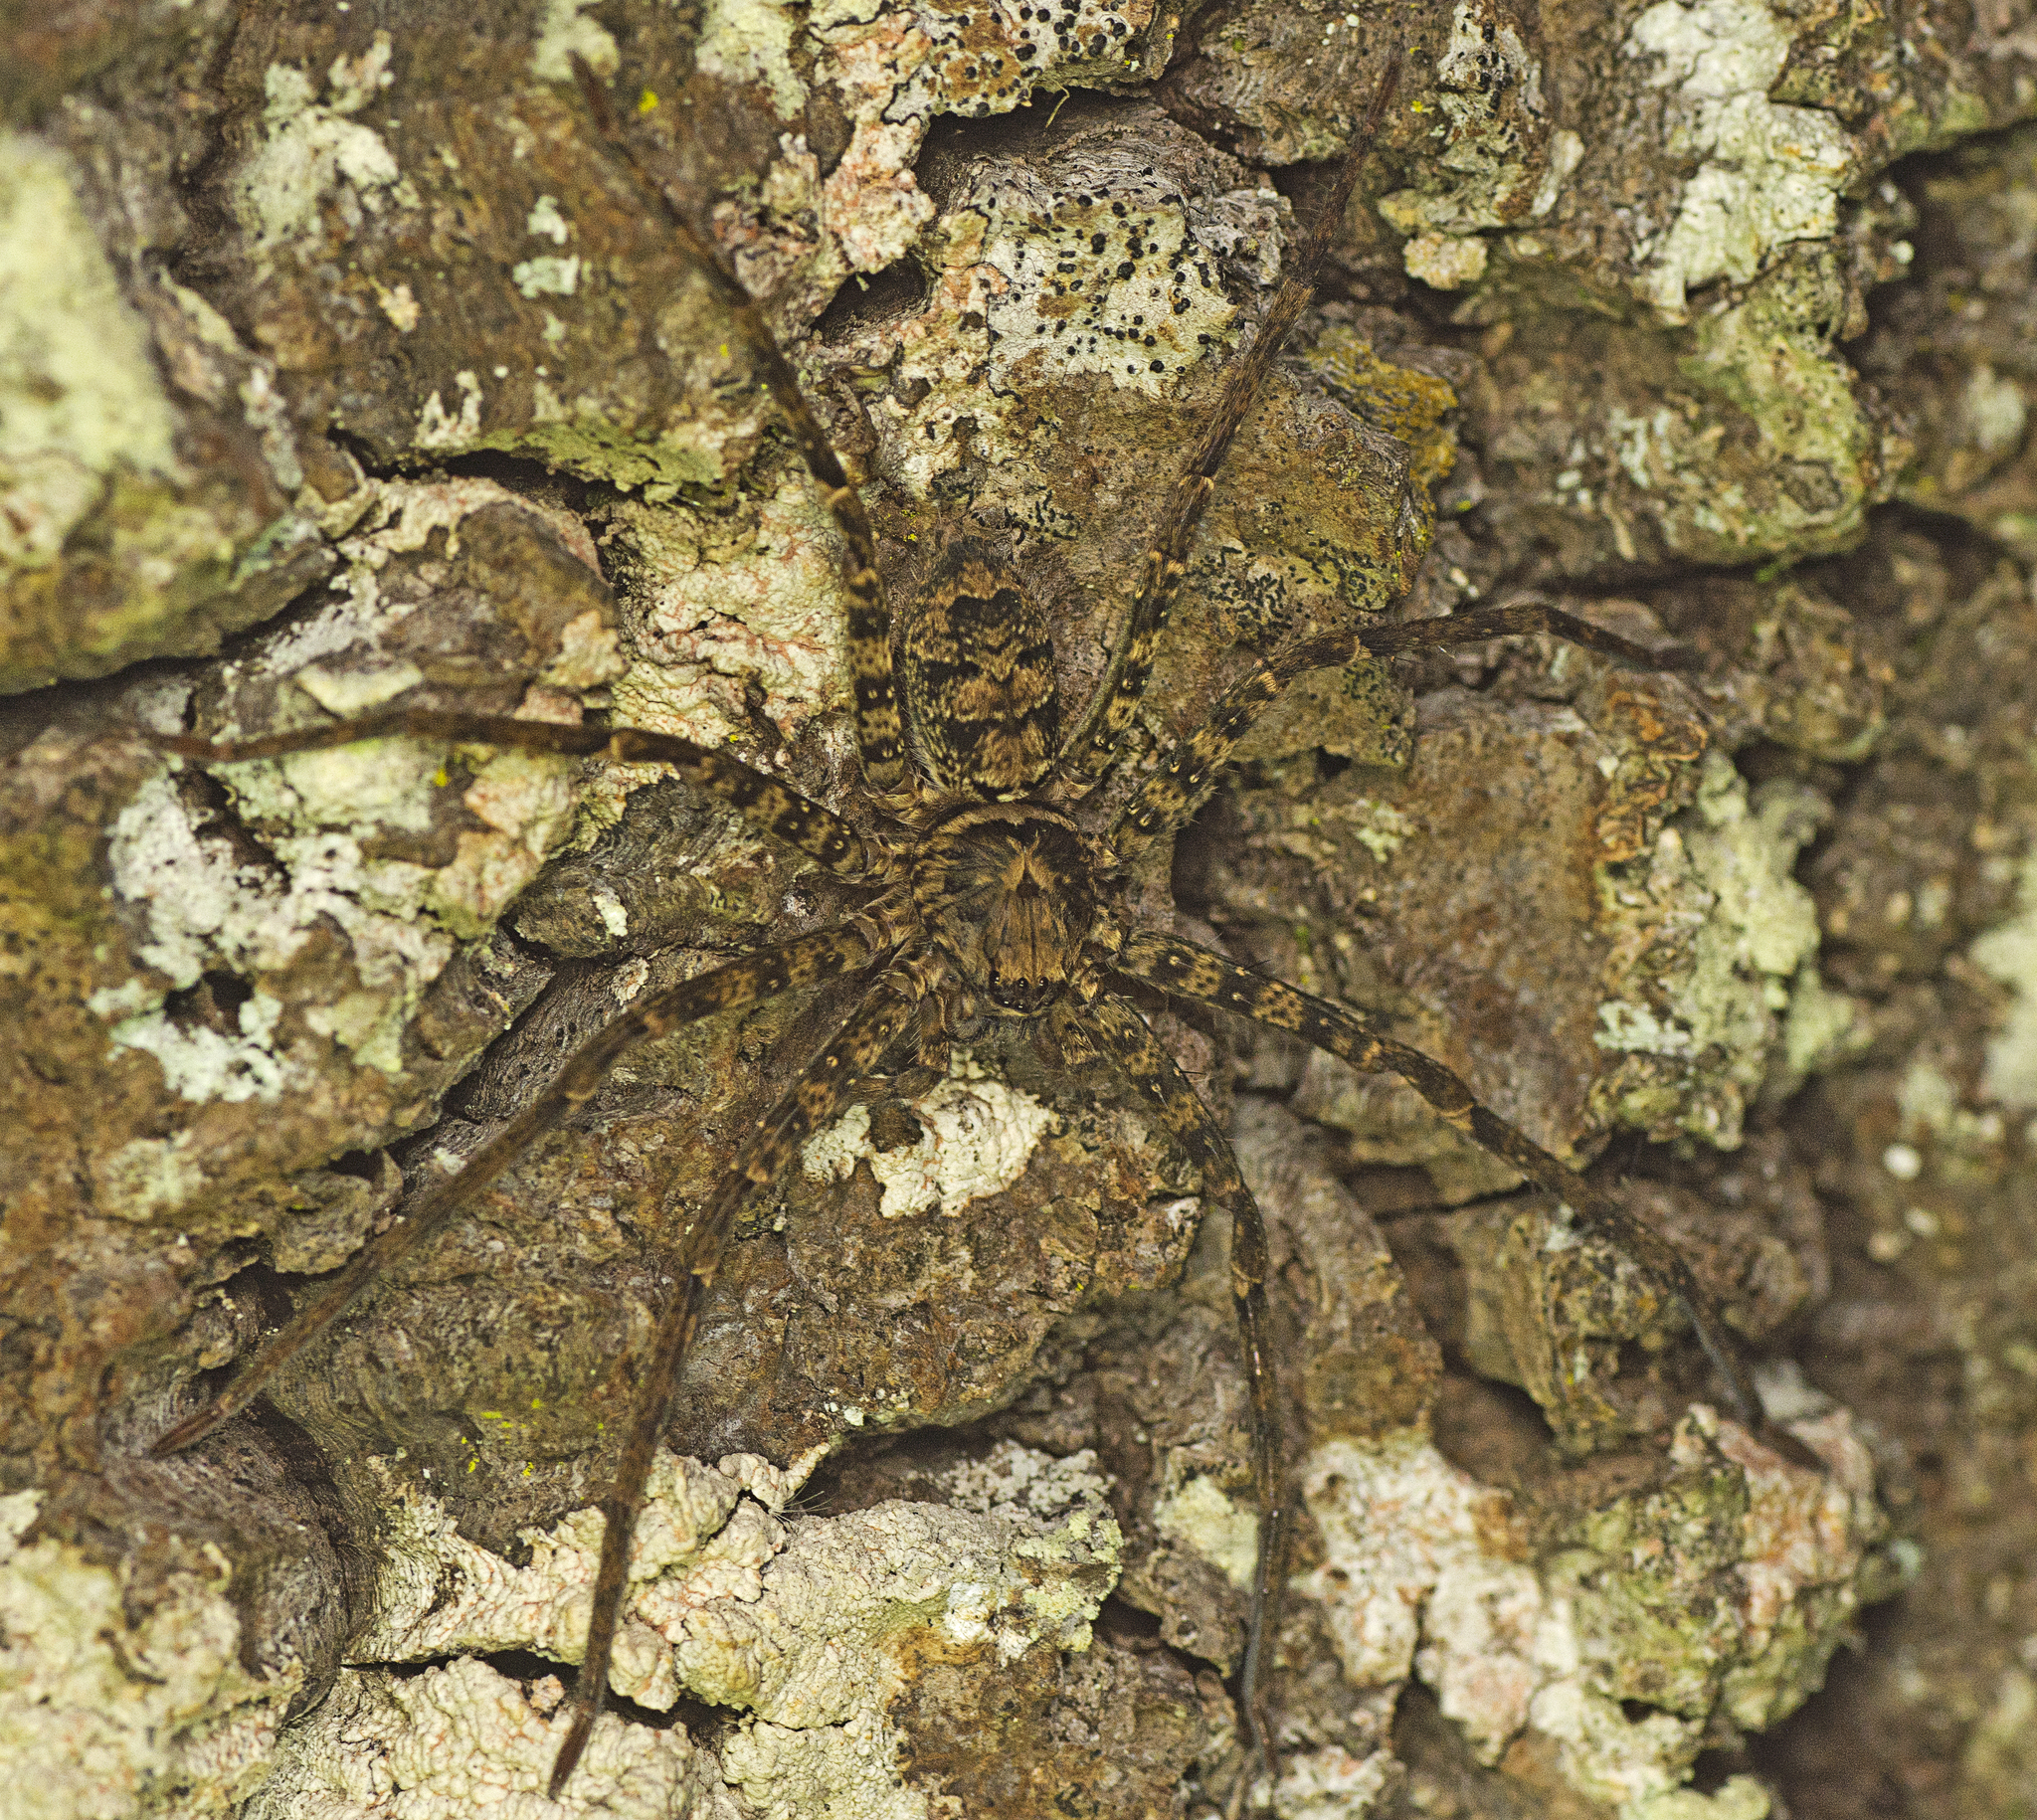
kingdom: Animalia
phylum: Arthropoda
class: Arachnida
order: Araneae
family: Sparassidae
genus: Heteropoda
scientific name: Heteropoda procera
